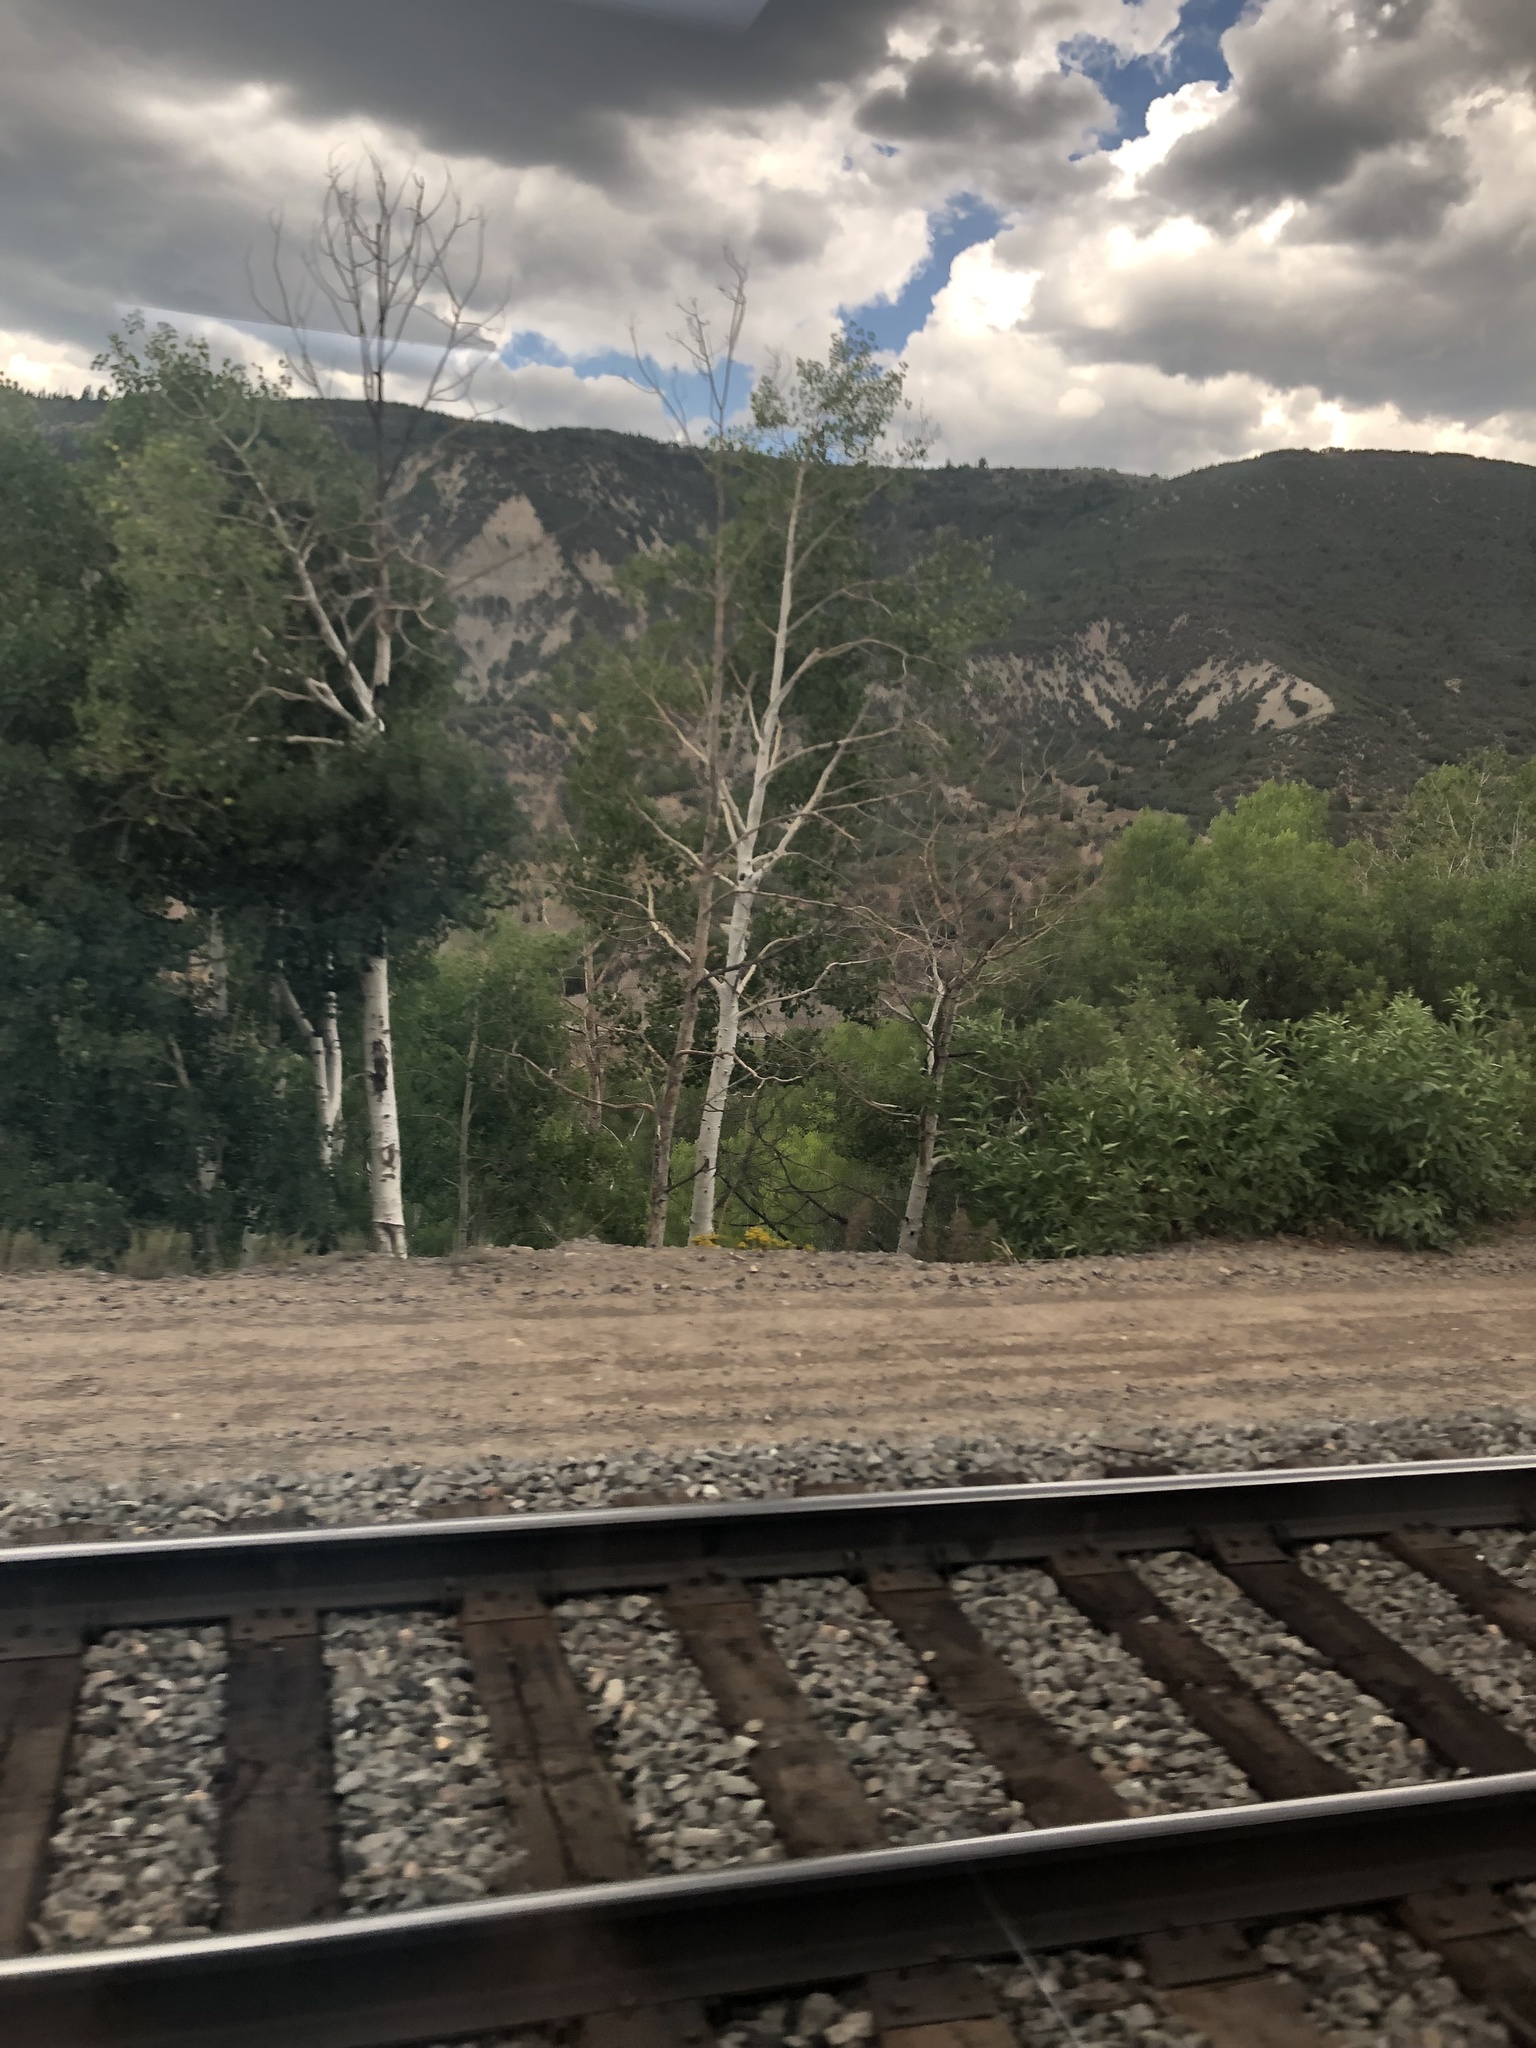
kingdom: Plantae
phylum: Tracheophyta
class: Magnoliopsida
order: Malpighiales
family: Salicaceae
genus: Populus
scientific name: Populus tremuloides
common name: Quaking aspen
